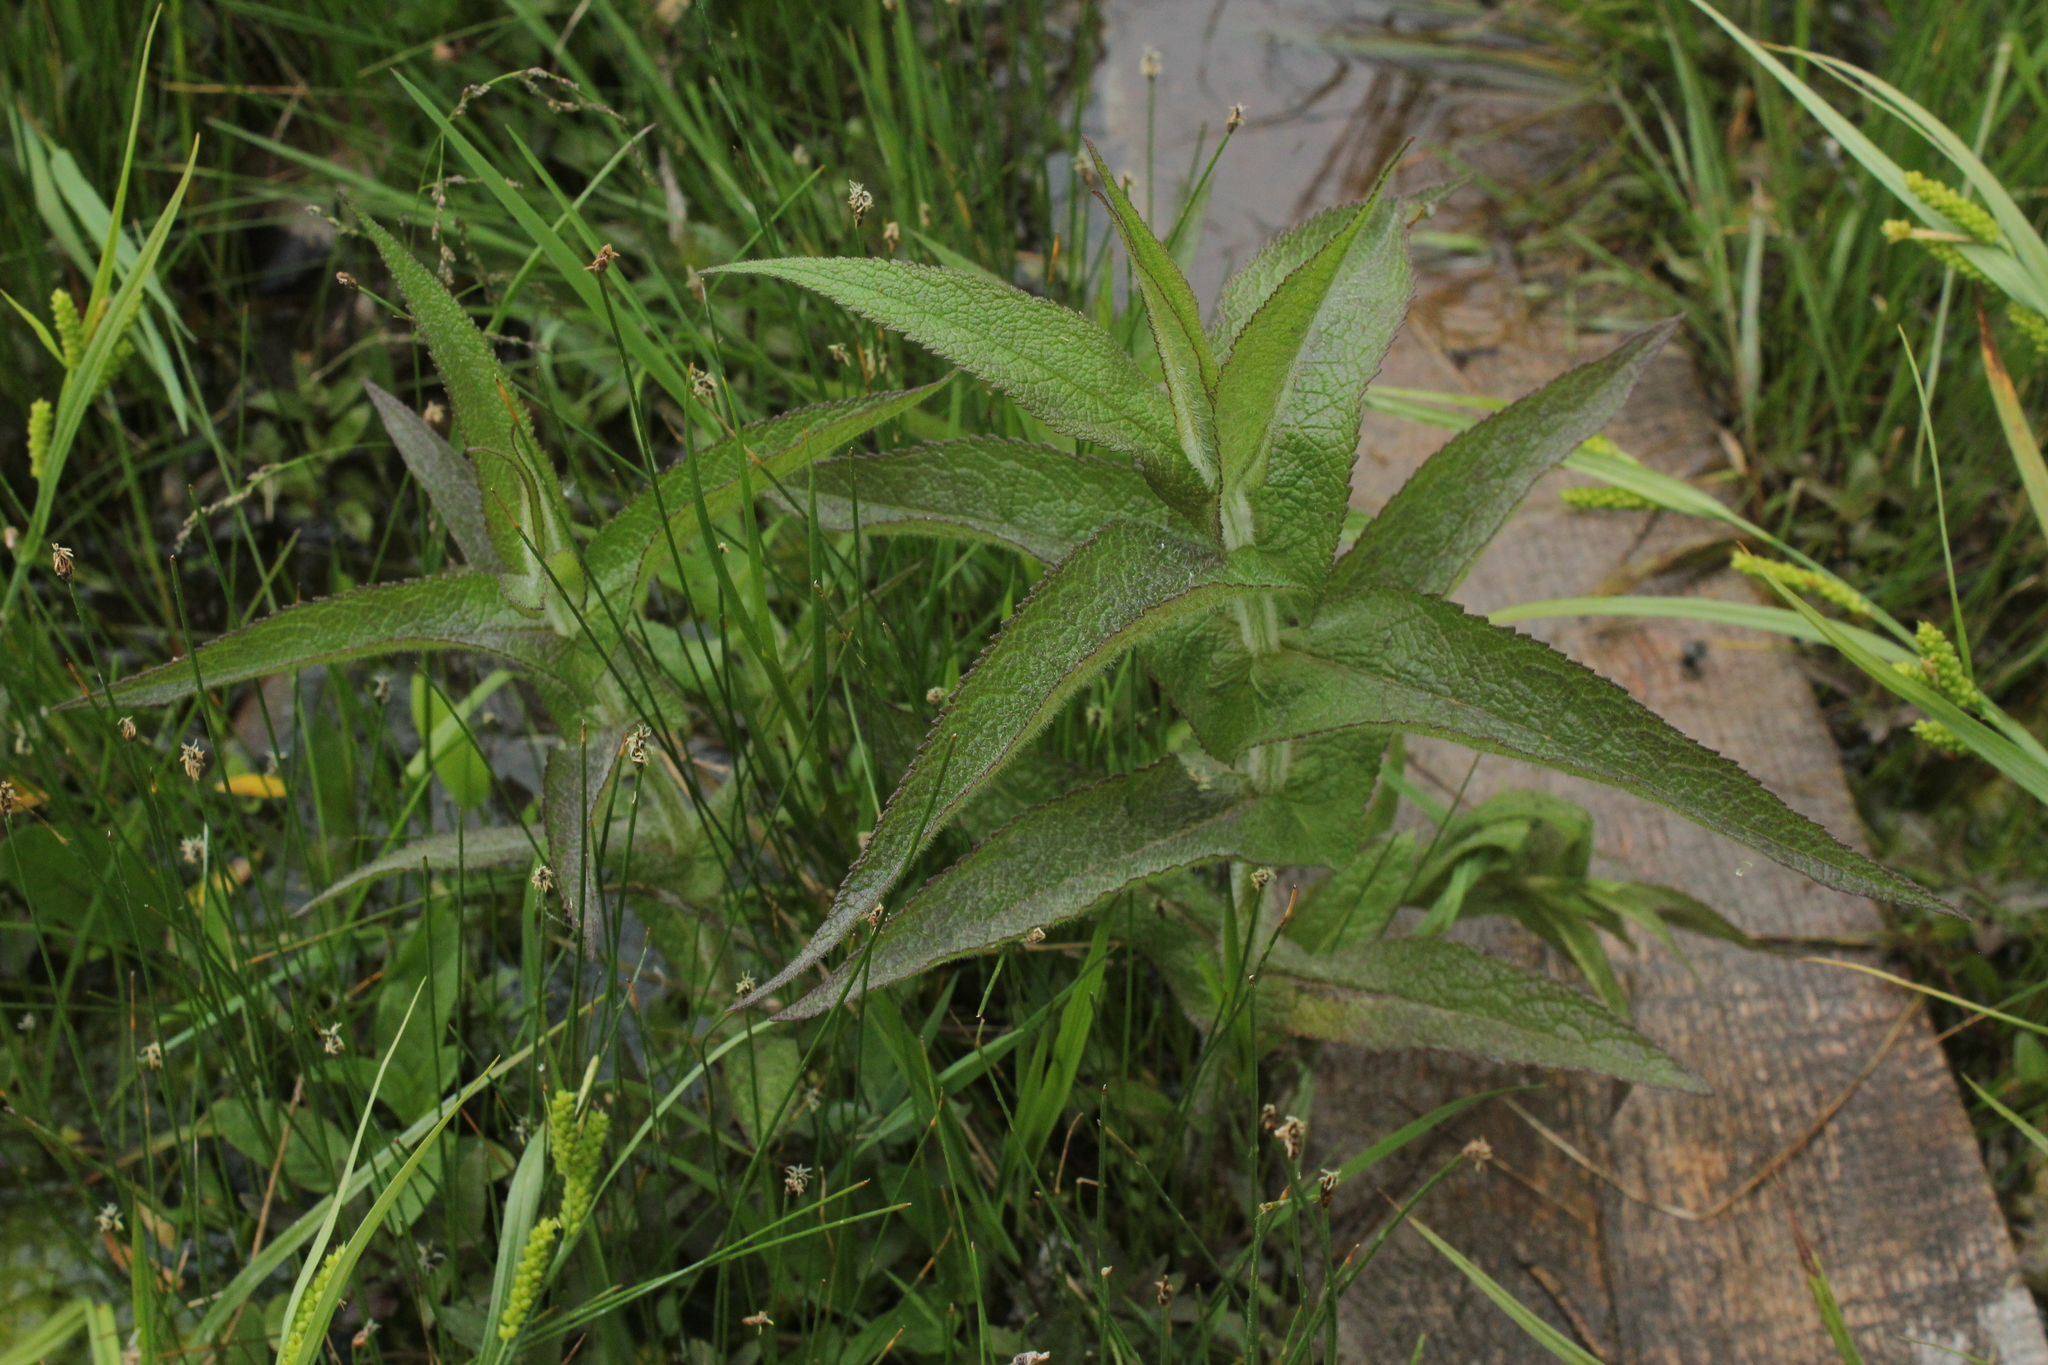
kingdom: Plantae
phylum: Tracheophyta
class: Magnoliopsida
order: Asterales
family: Asteraceae
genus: Eupatorium
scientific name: Eupatorium perfoliatum
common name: Boneset
